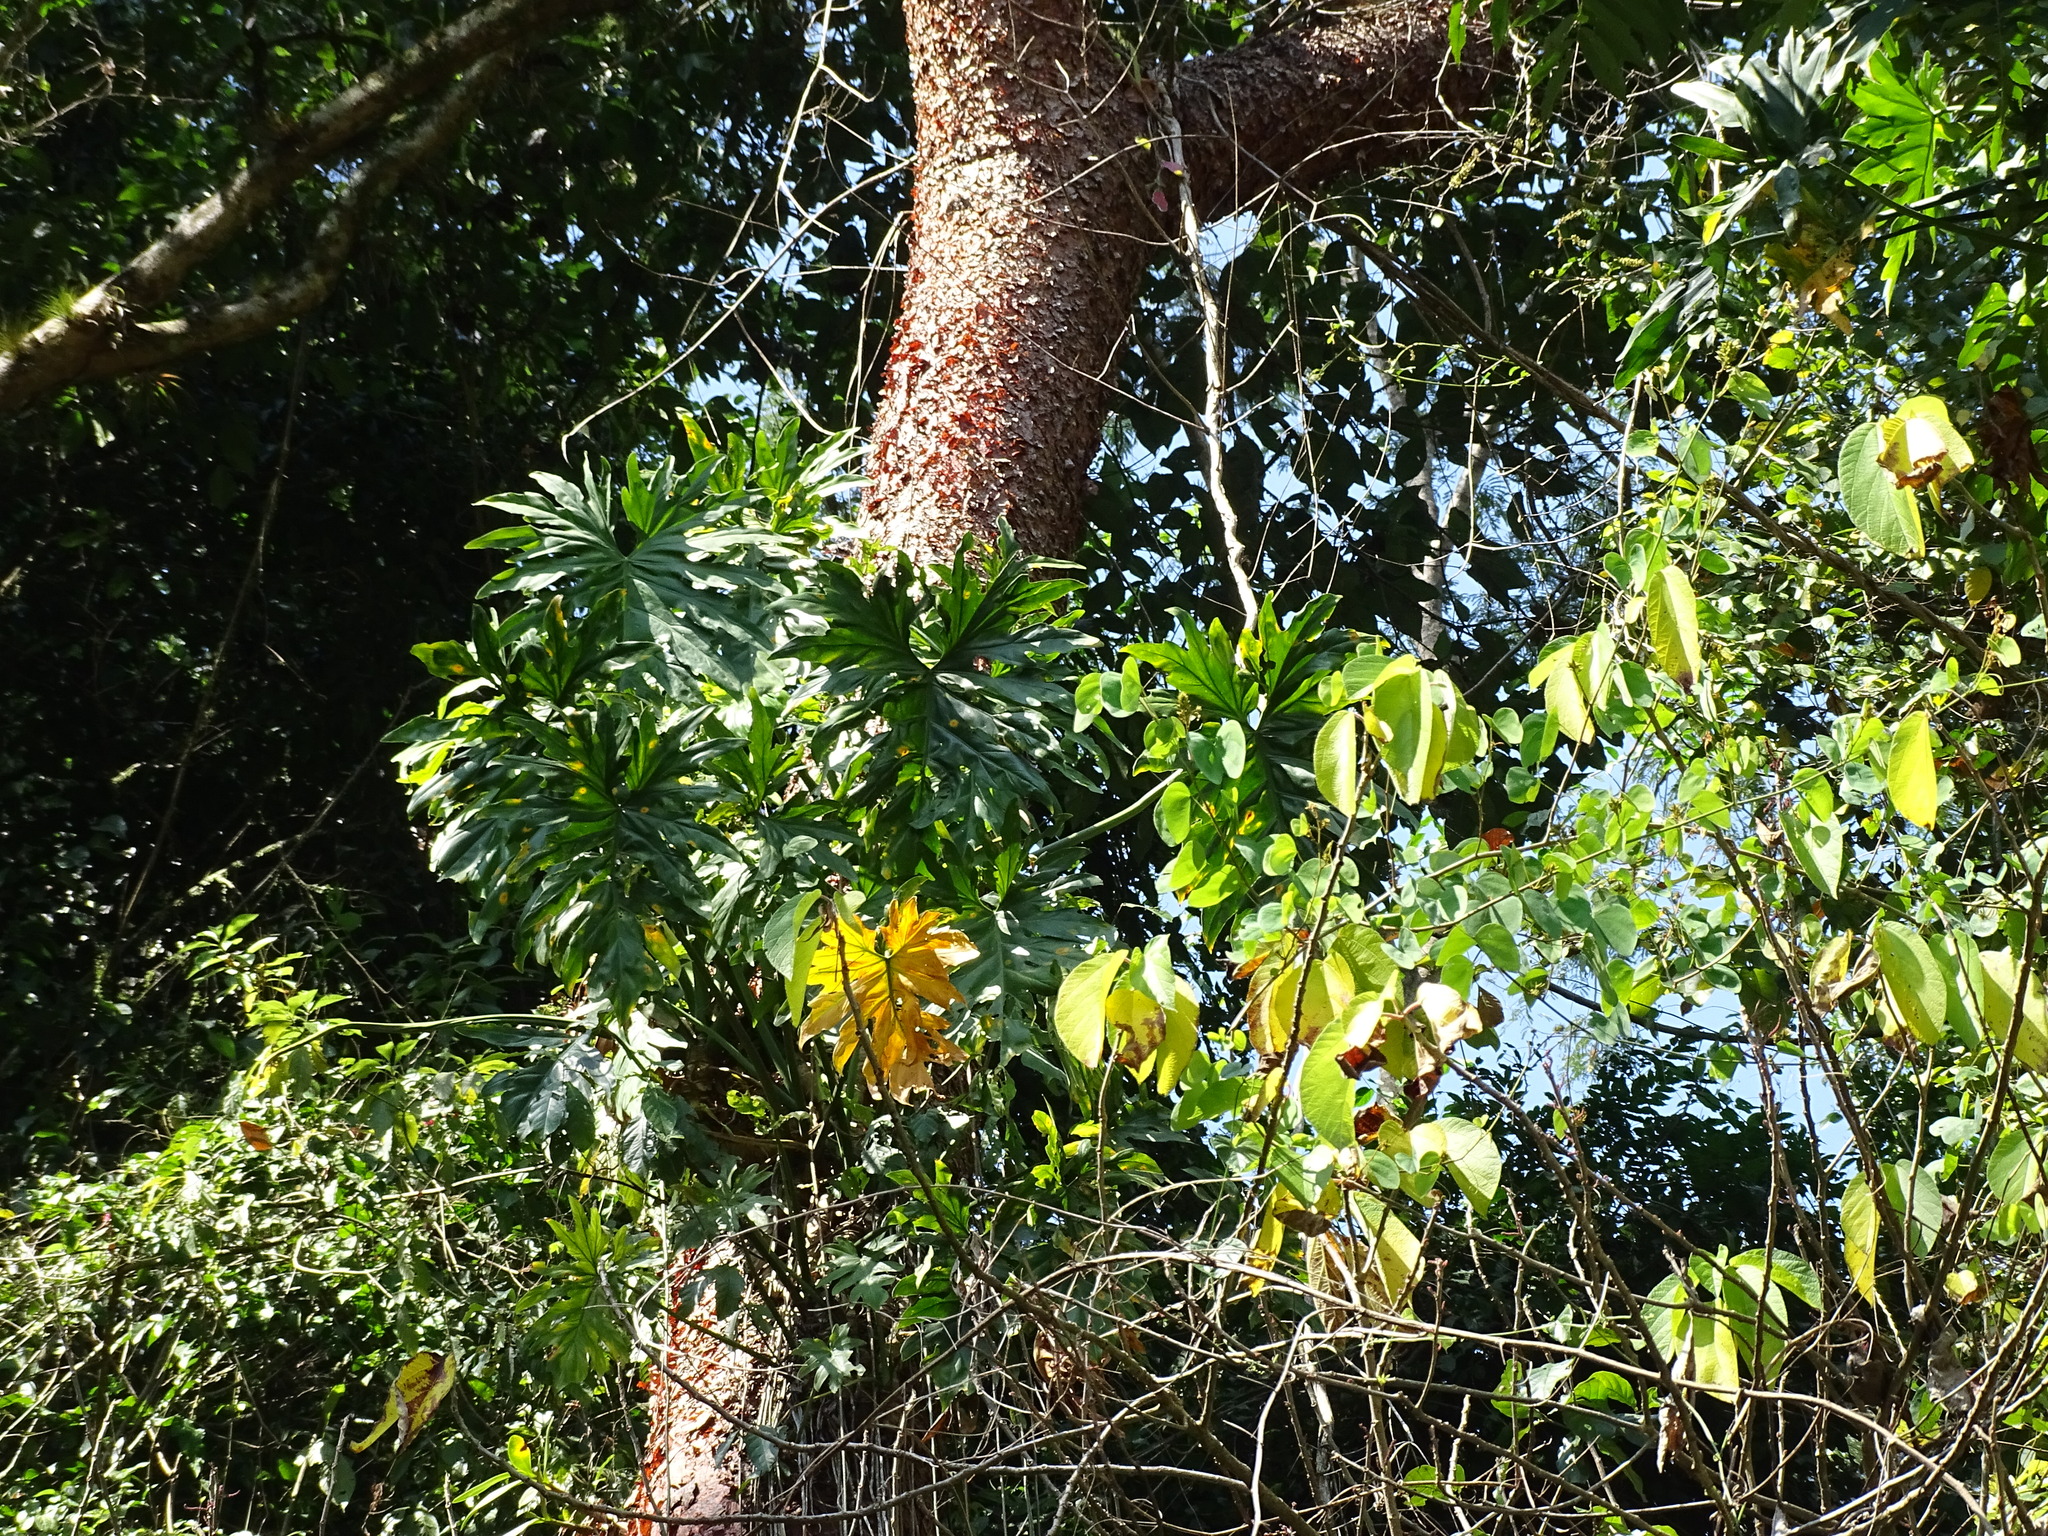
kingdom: Plantae
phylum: Tracheophyta
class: Liliopsida
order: Alismatales
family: Araceae
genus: Philodendron
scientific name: Philodendron radiatum
